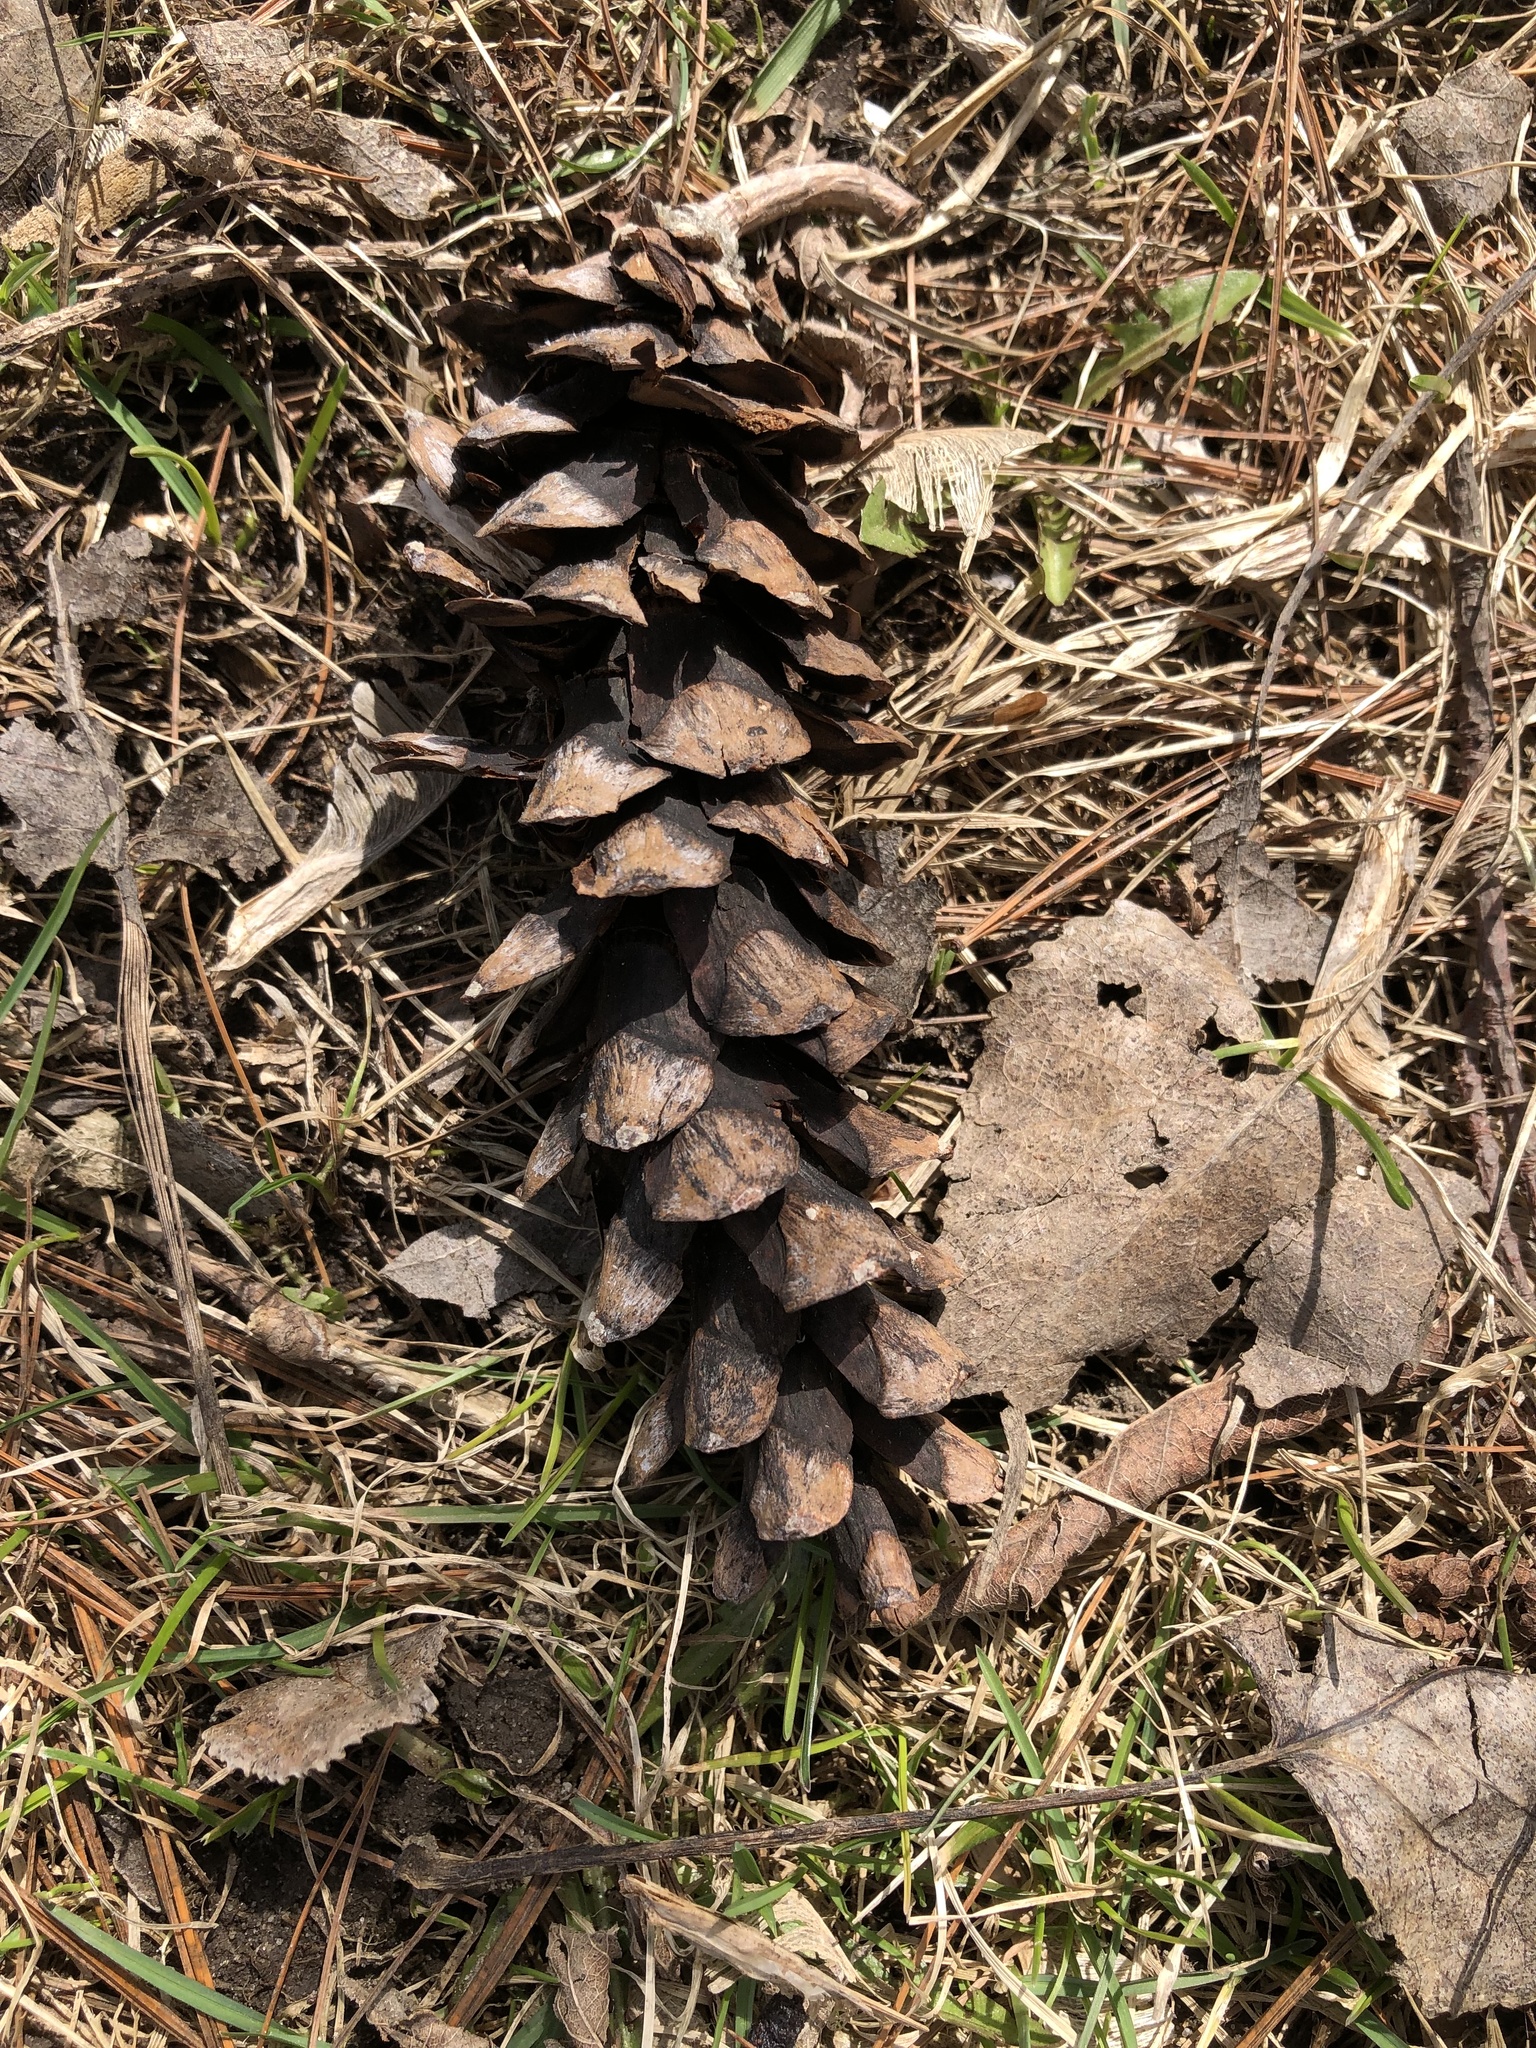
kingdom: Plantae
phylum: Tracheophyta
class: Pinopsida
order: Pinales
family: Pinaceae
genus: Pinus
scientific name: Pinus strobus
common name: Weymouth pine
